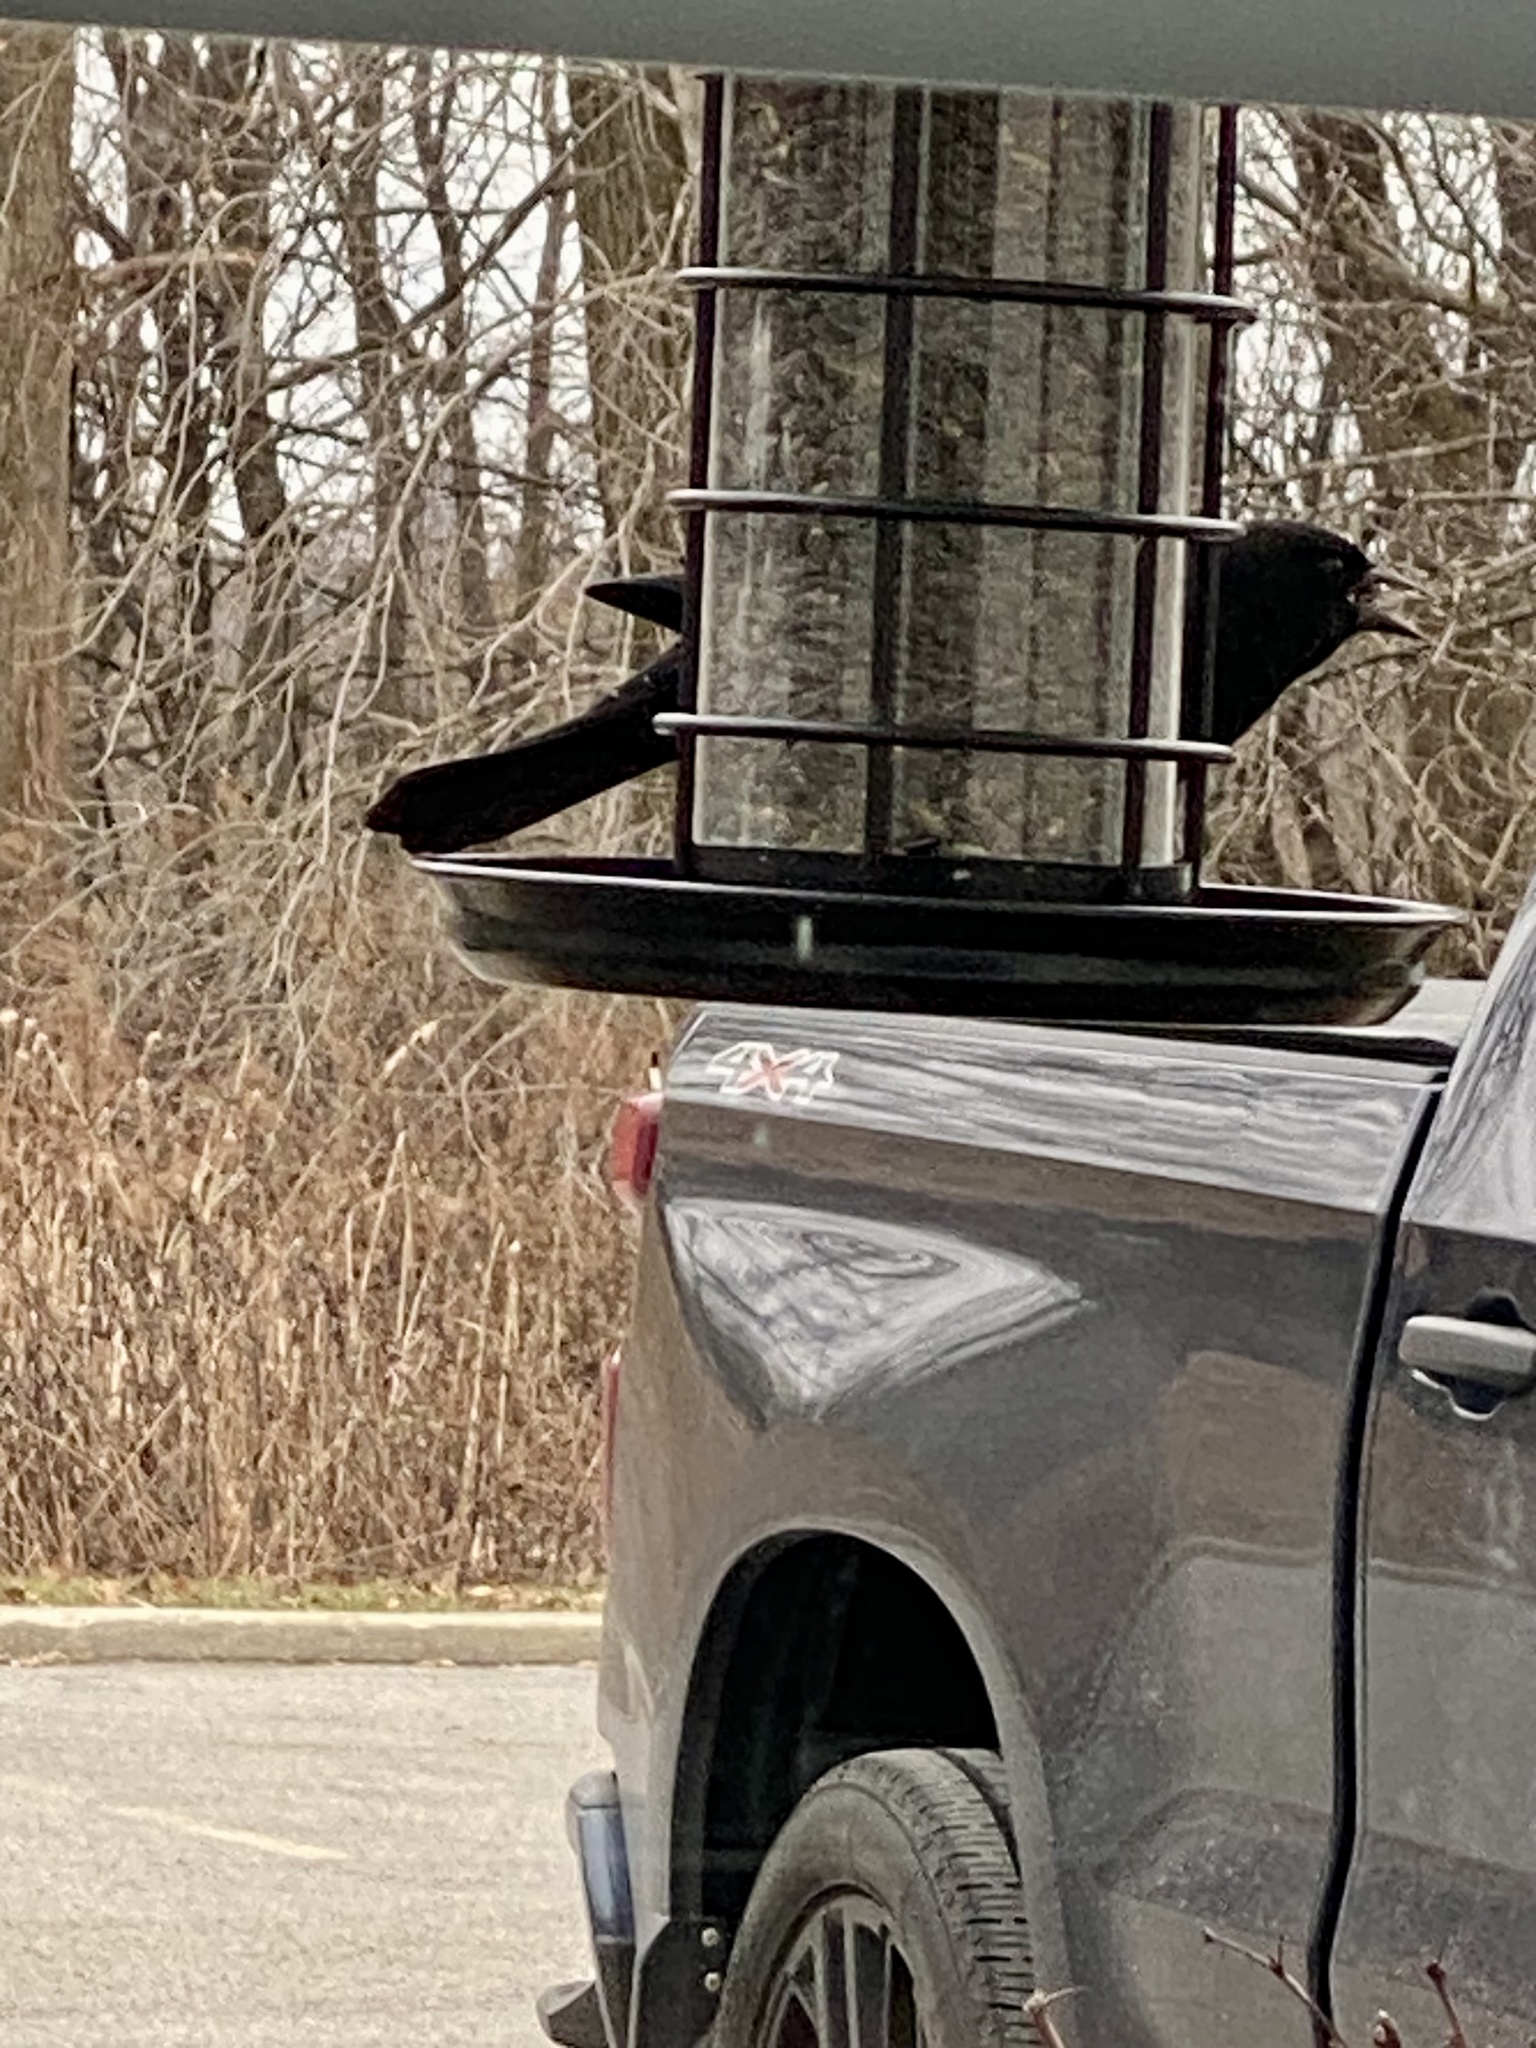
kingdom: Animalia
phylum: Chordata
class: Aves
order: Passeriformes
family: Icteridae
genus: Agelaius
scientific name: Agelaius phoeniceus
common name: Red-winged blackbird
